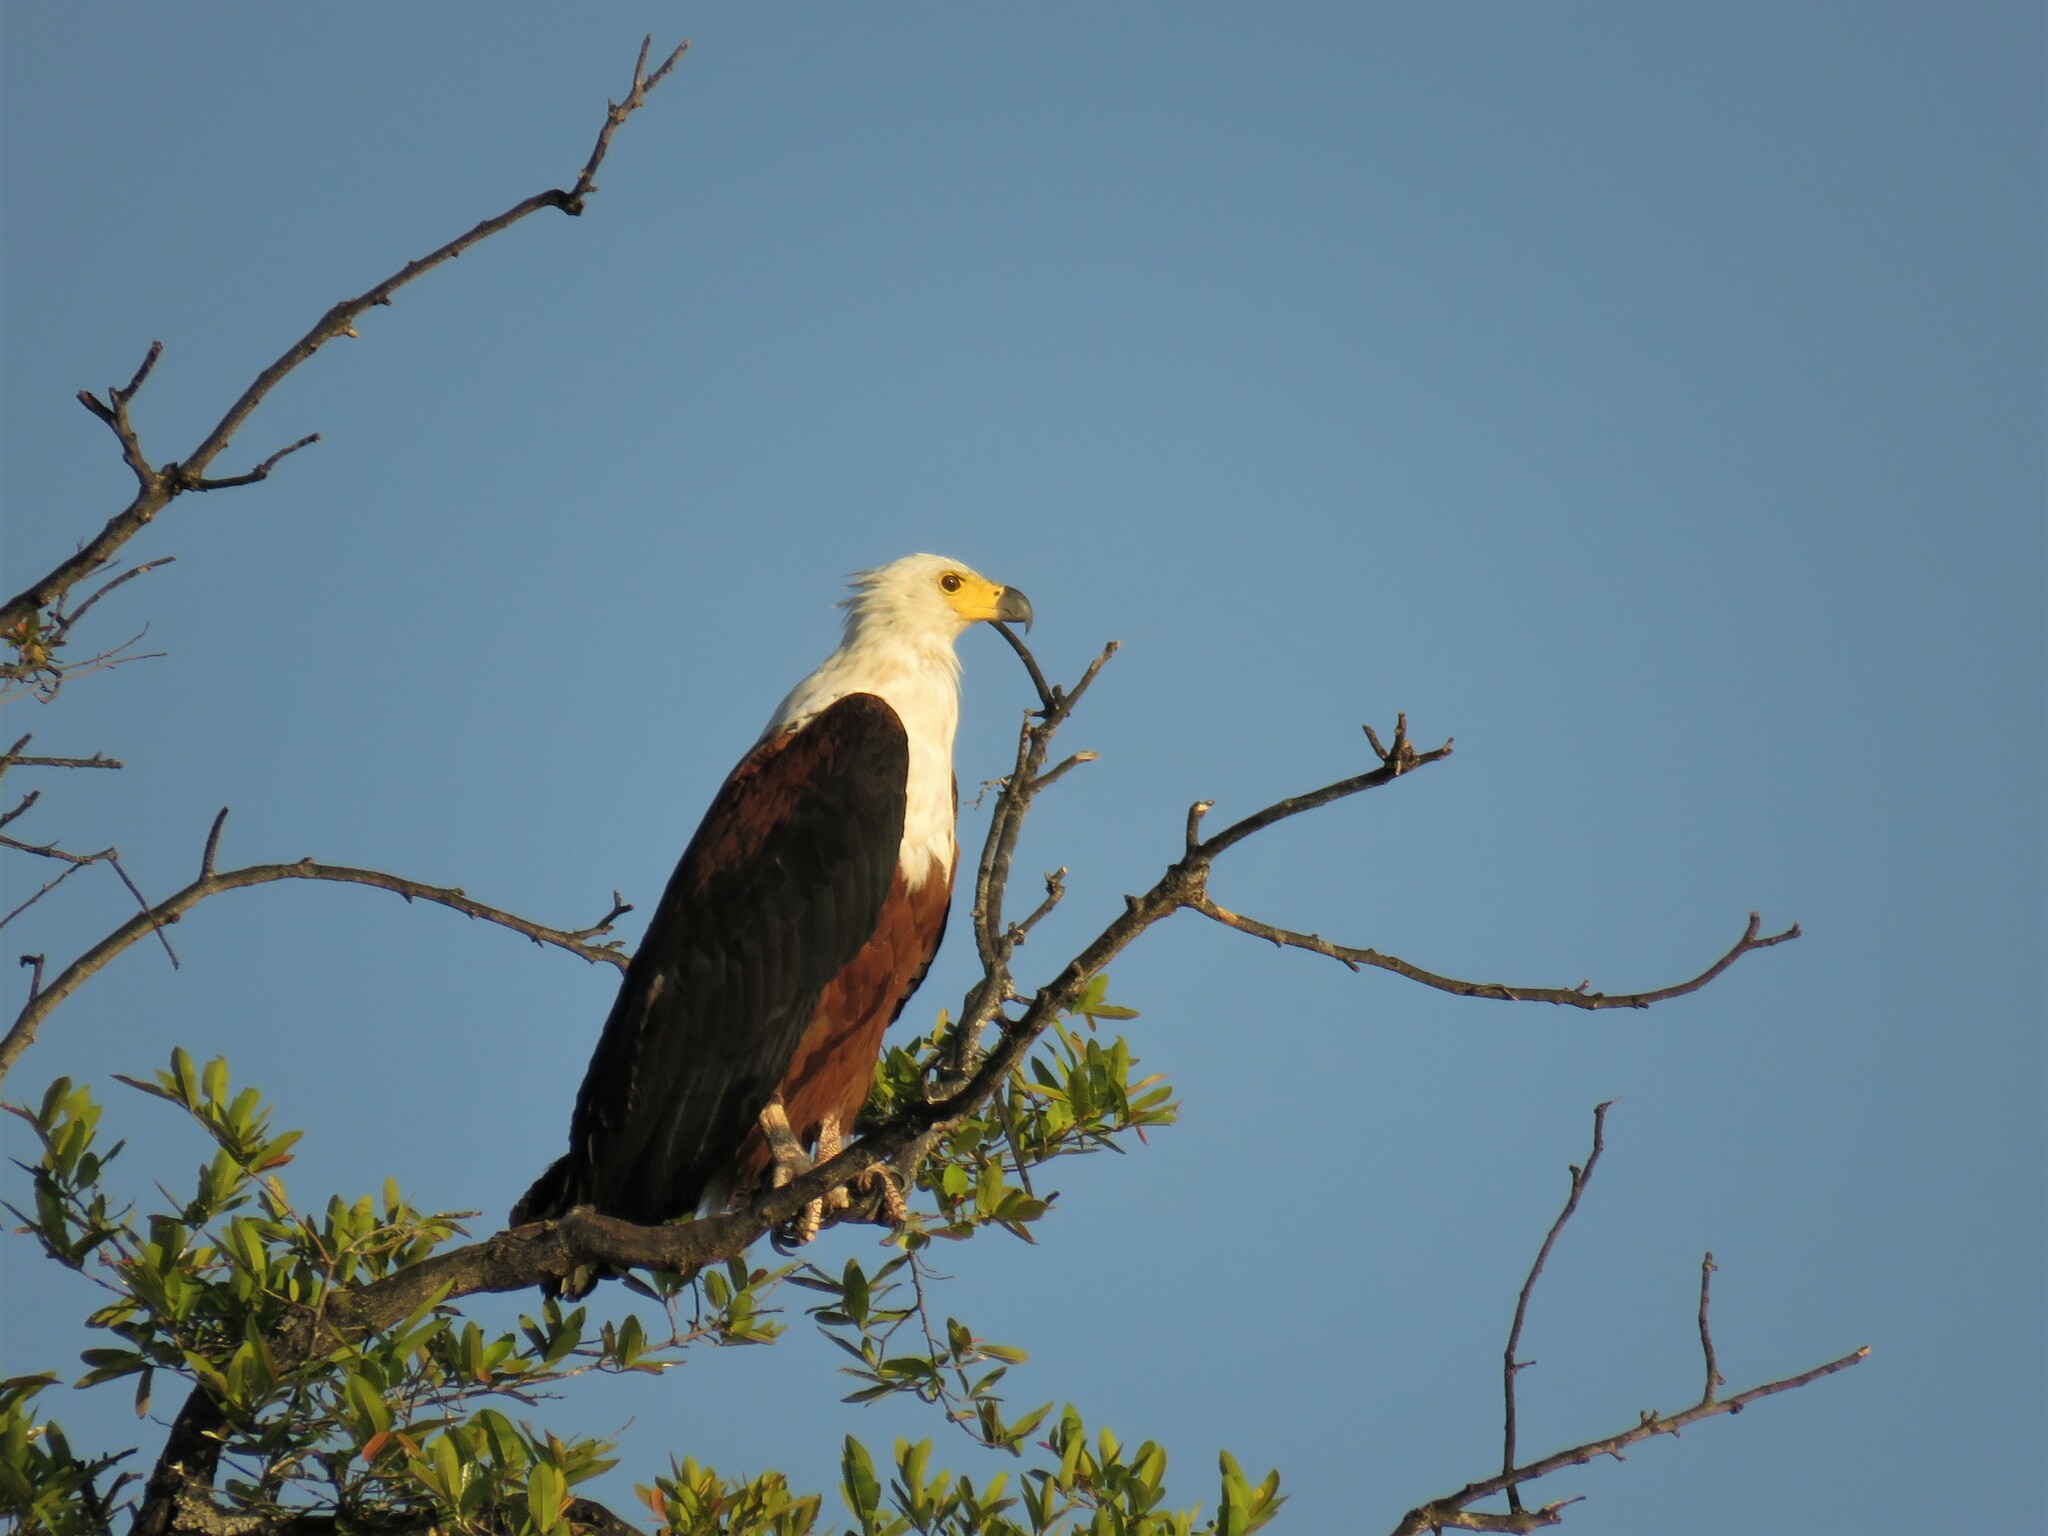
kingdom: Animalia
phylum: Chordata
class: Aves
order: Accipitriformes
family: Accipitridae
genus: Haliaeetus
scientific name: Haliaeetus vocifer
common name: African fish eagle
